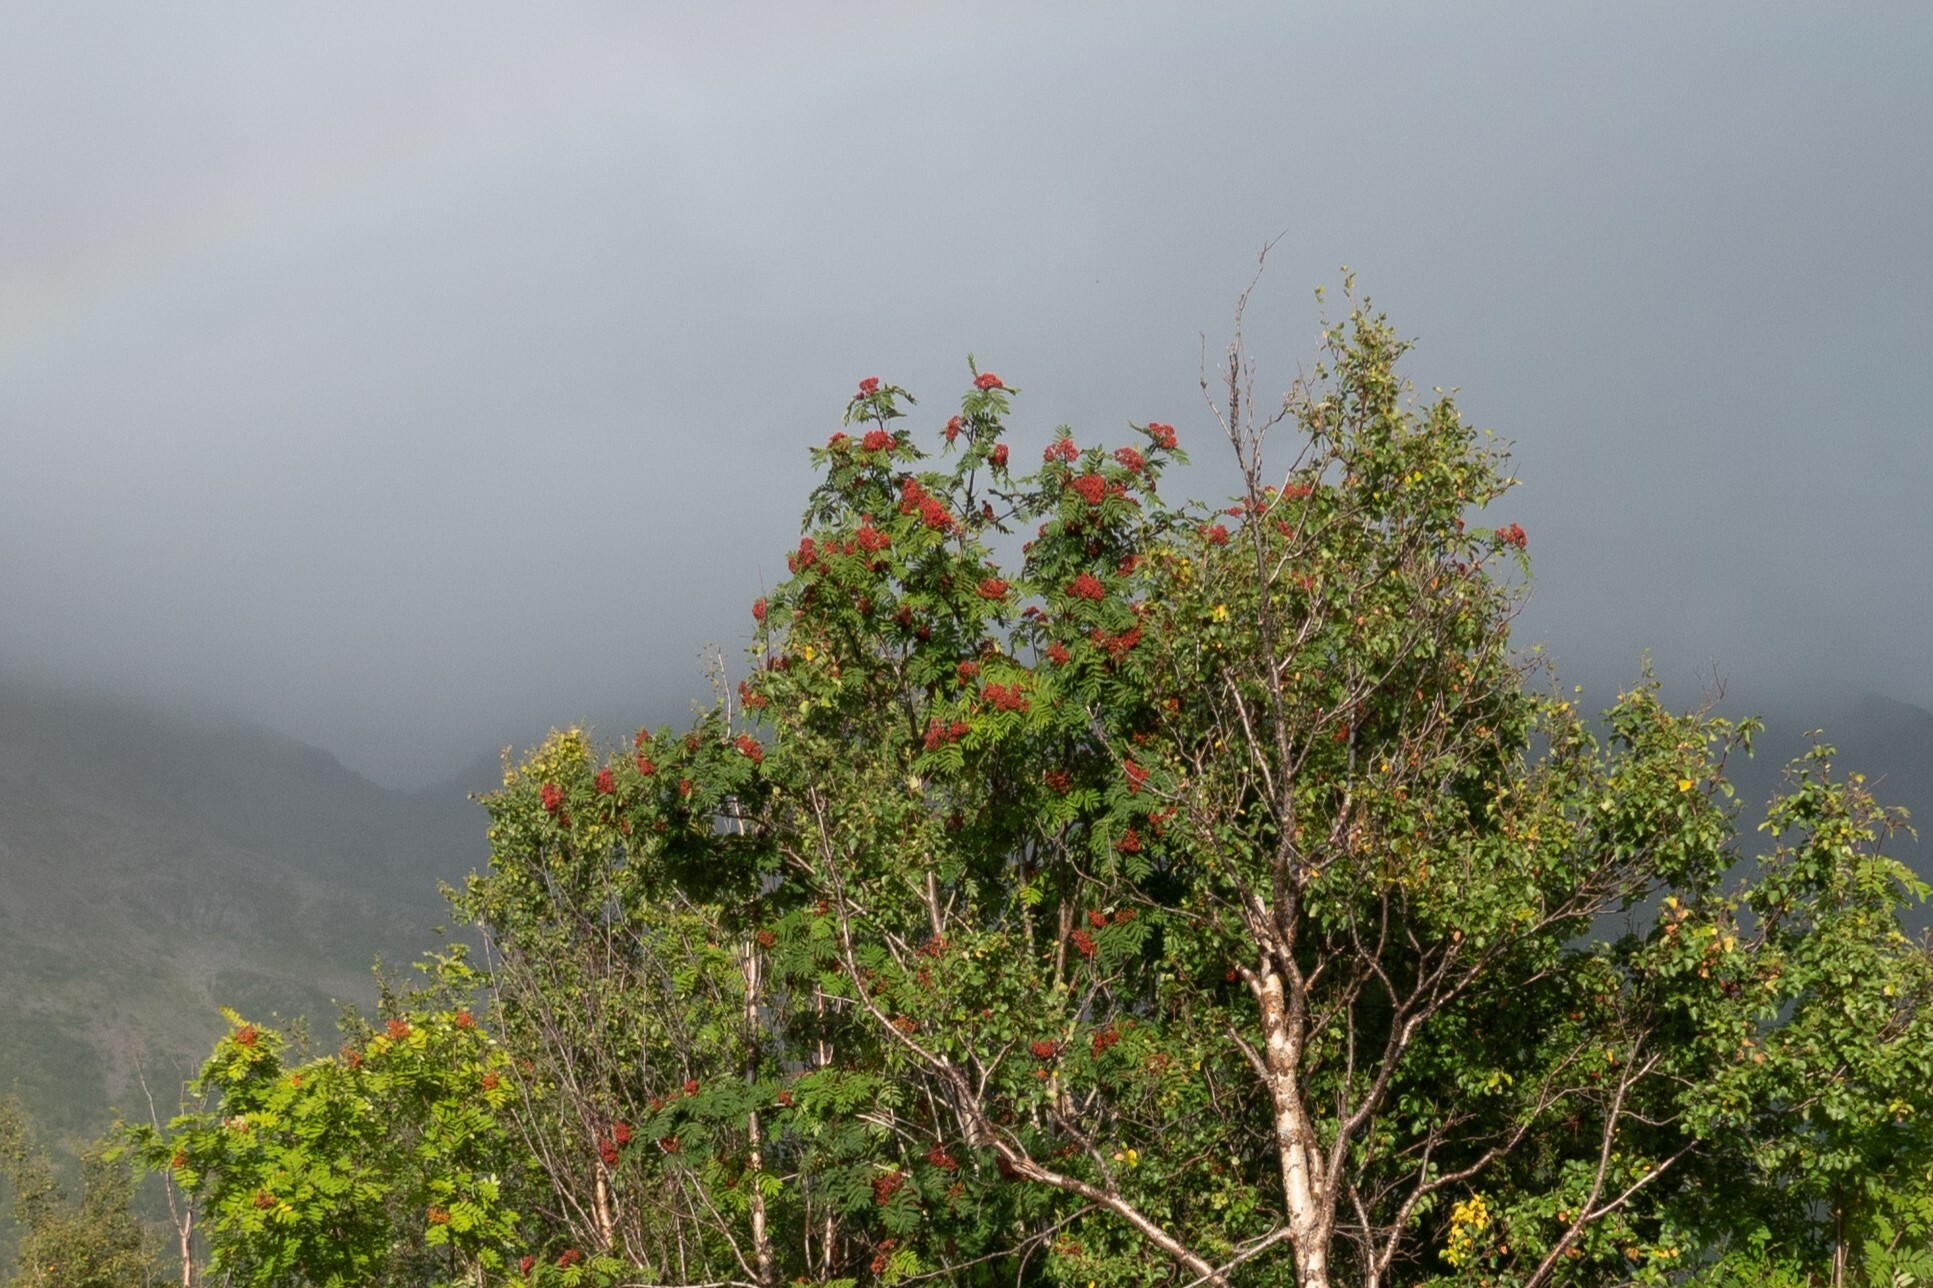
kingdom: Plantae
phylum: Tracheophyta
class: Magnoliopsida
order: Rosales
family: Rosaceae
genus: Sorbus
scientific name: Sorbus aucuparia
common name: Rowan
